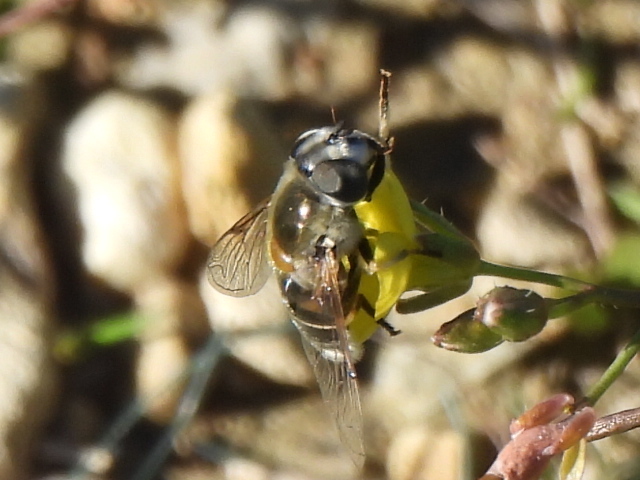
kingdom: Animalia
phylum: Arthropoda
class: Insecta
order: Diptera
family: Syrphidae
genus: Eristalis
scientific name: Eristalis stipator
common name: Yellow-shouldered drone fly
